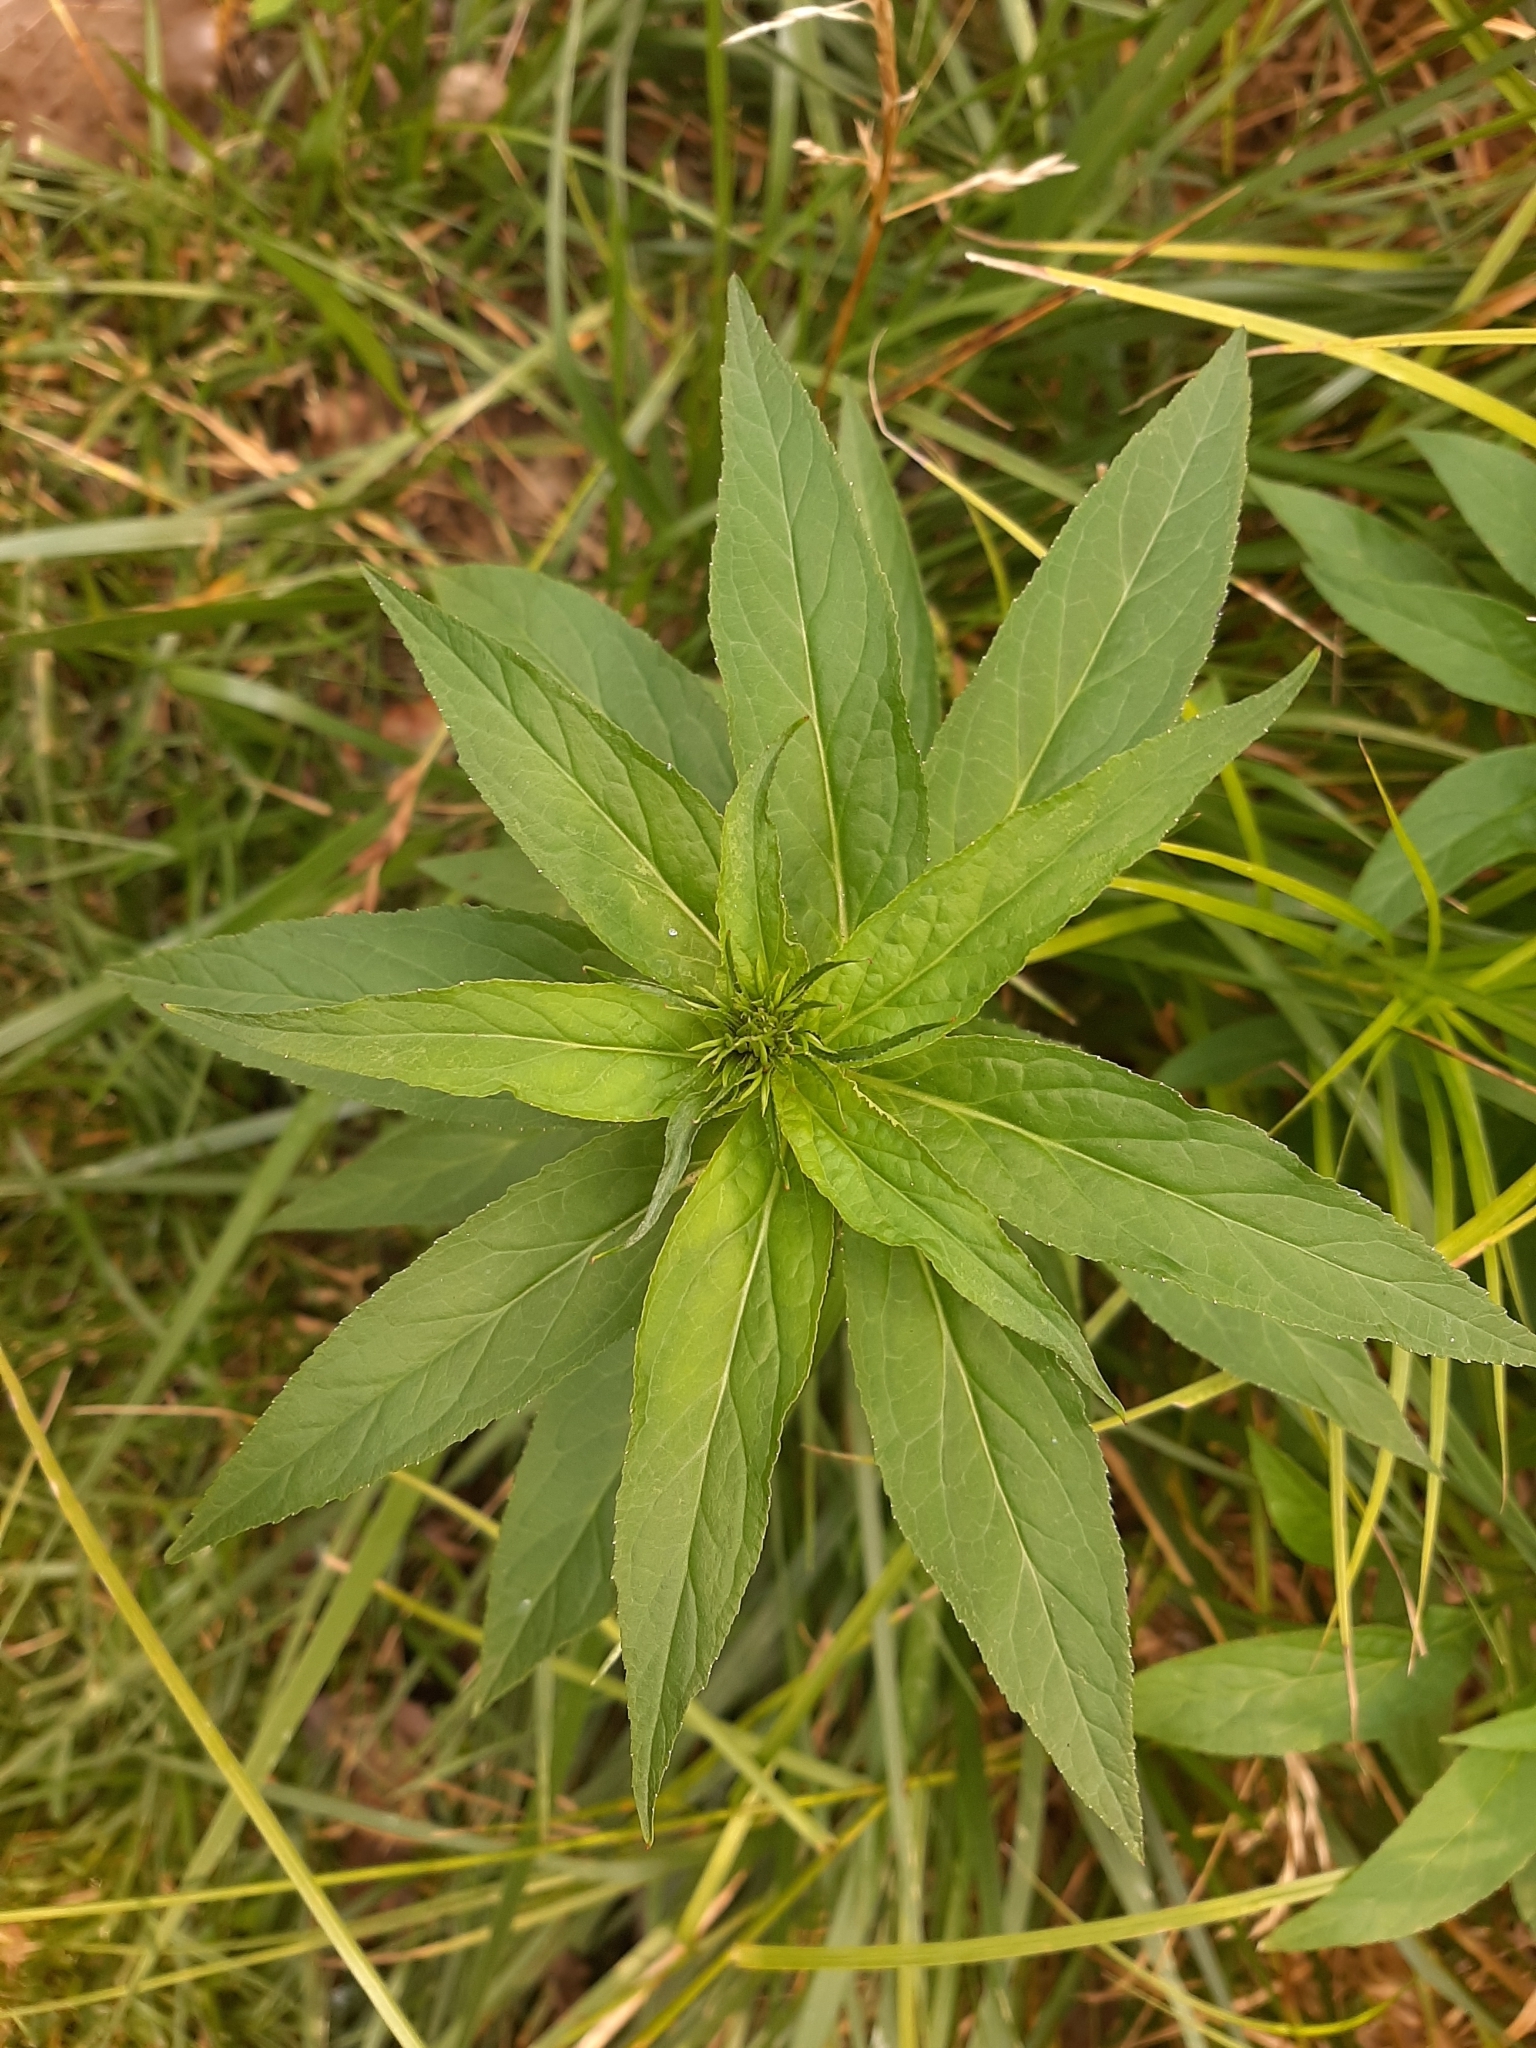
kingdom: Plantae
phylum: Tracheophyta
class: Magnoliopsida
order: Asterales
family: Campanulaceae
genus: Lobelia
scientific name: Lobelia cardinalis
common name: Cardinal flower
